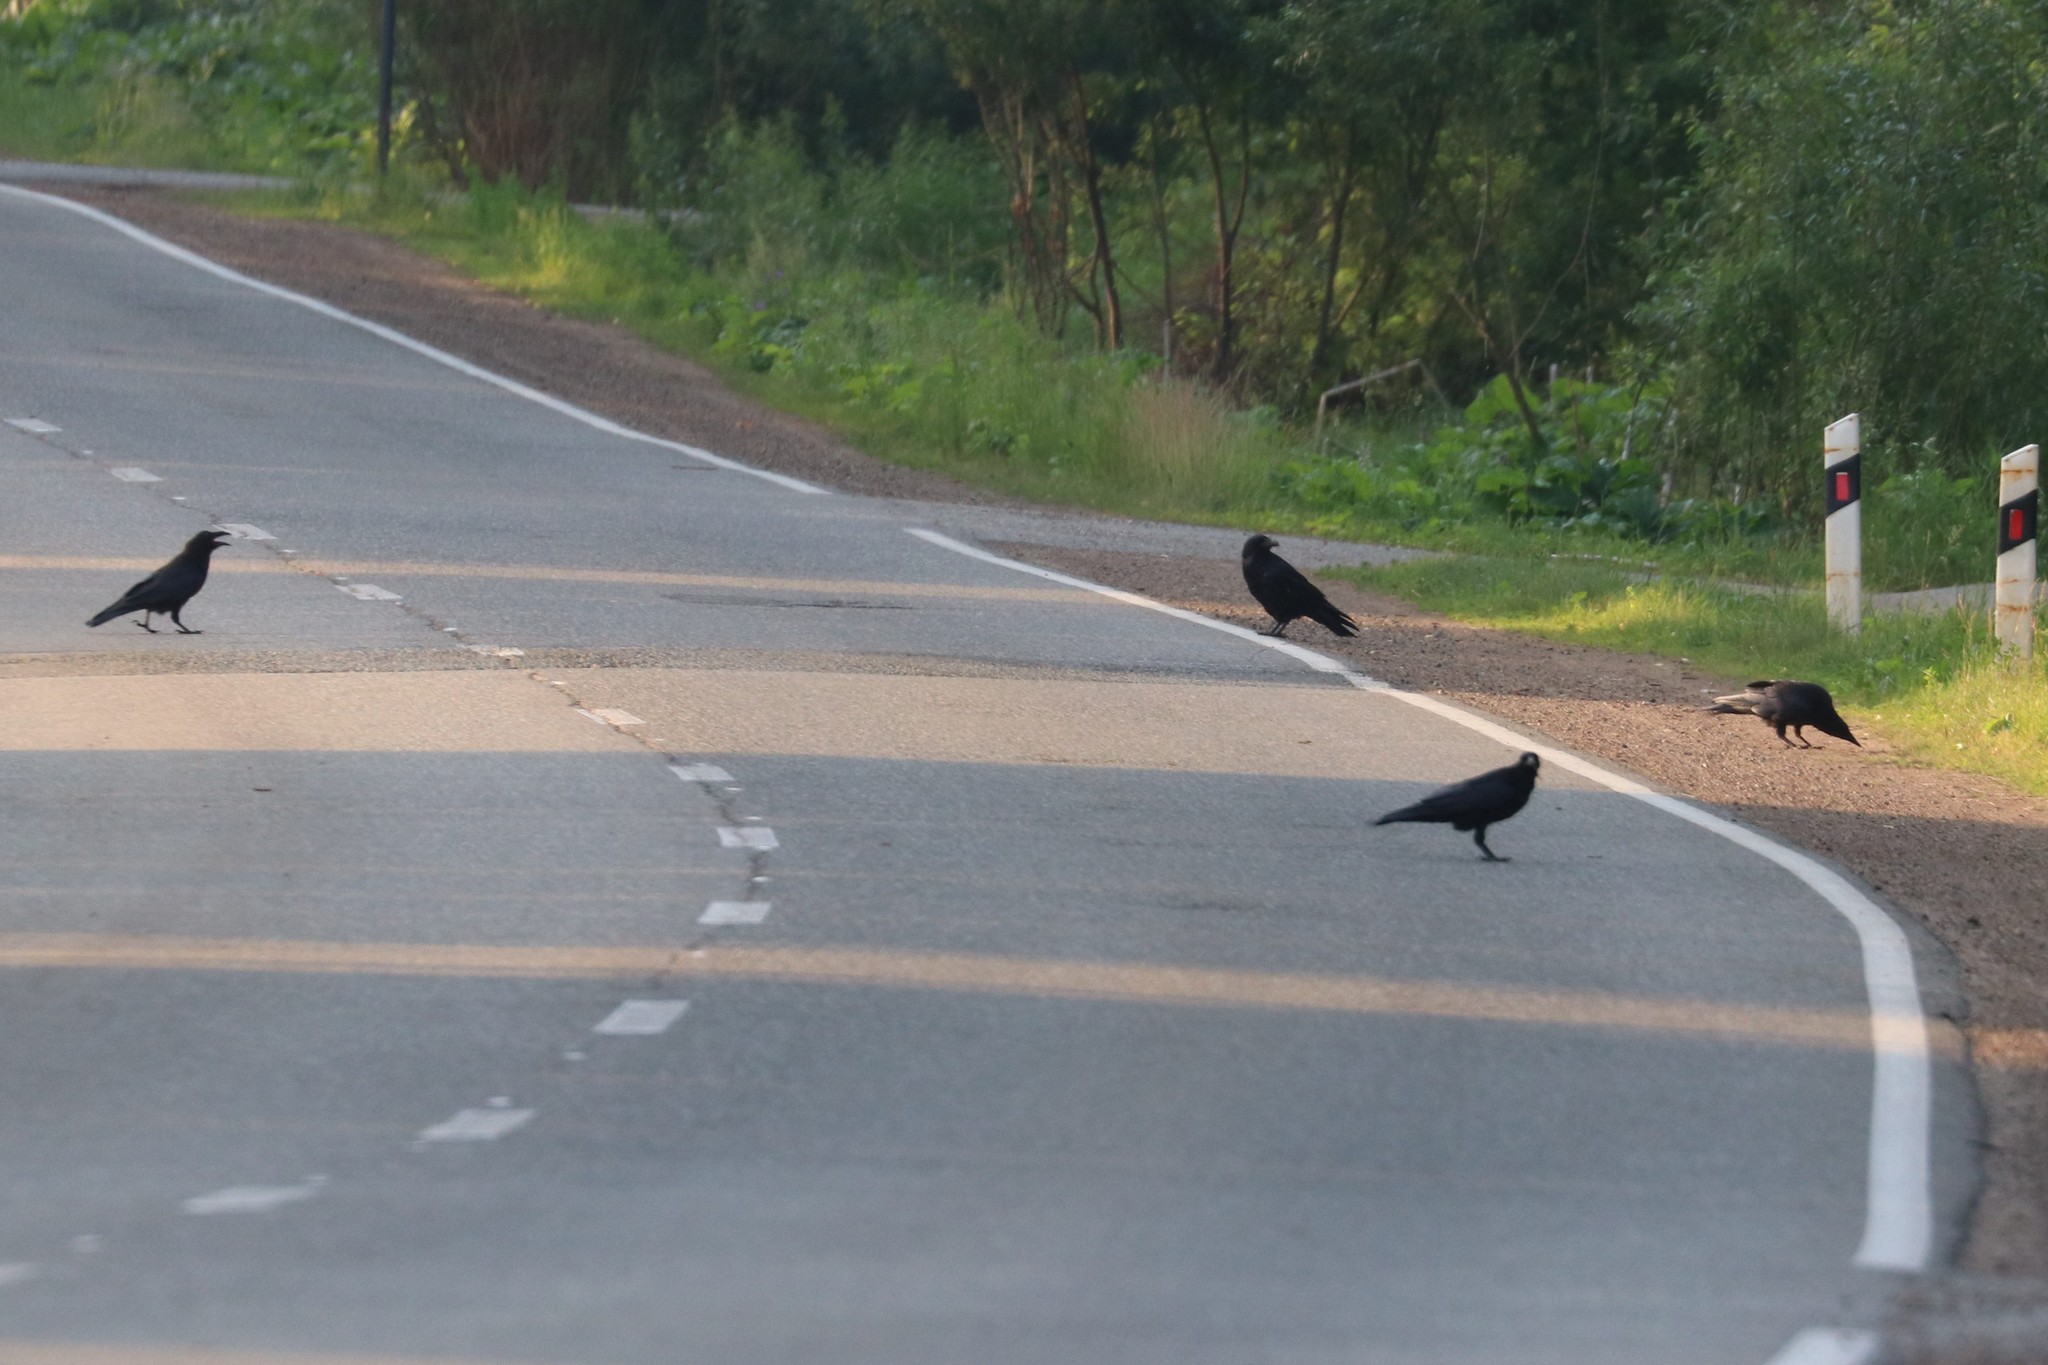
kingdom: Animalia
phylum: Chordata
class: Aves
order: Passeriformes
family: Corvidae
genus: Corvus
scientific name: Corvus corax
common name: Common raven
